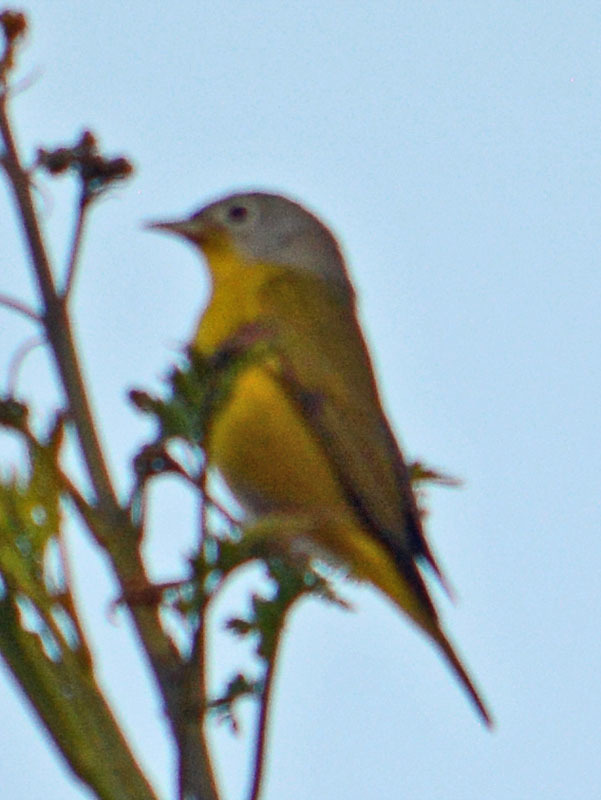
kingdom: Animalia
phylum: Chordata
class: Aves
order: Passeriformes
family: Parulidae
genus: Leiothlypis
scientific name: Leiothlypis ruficapilla
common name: Nashville warbler
